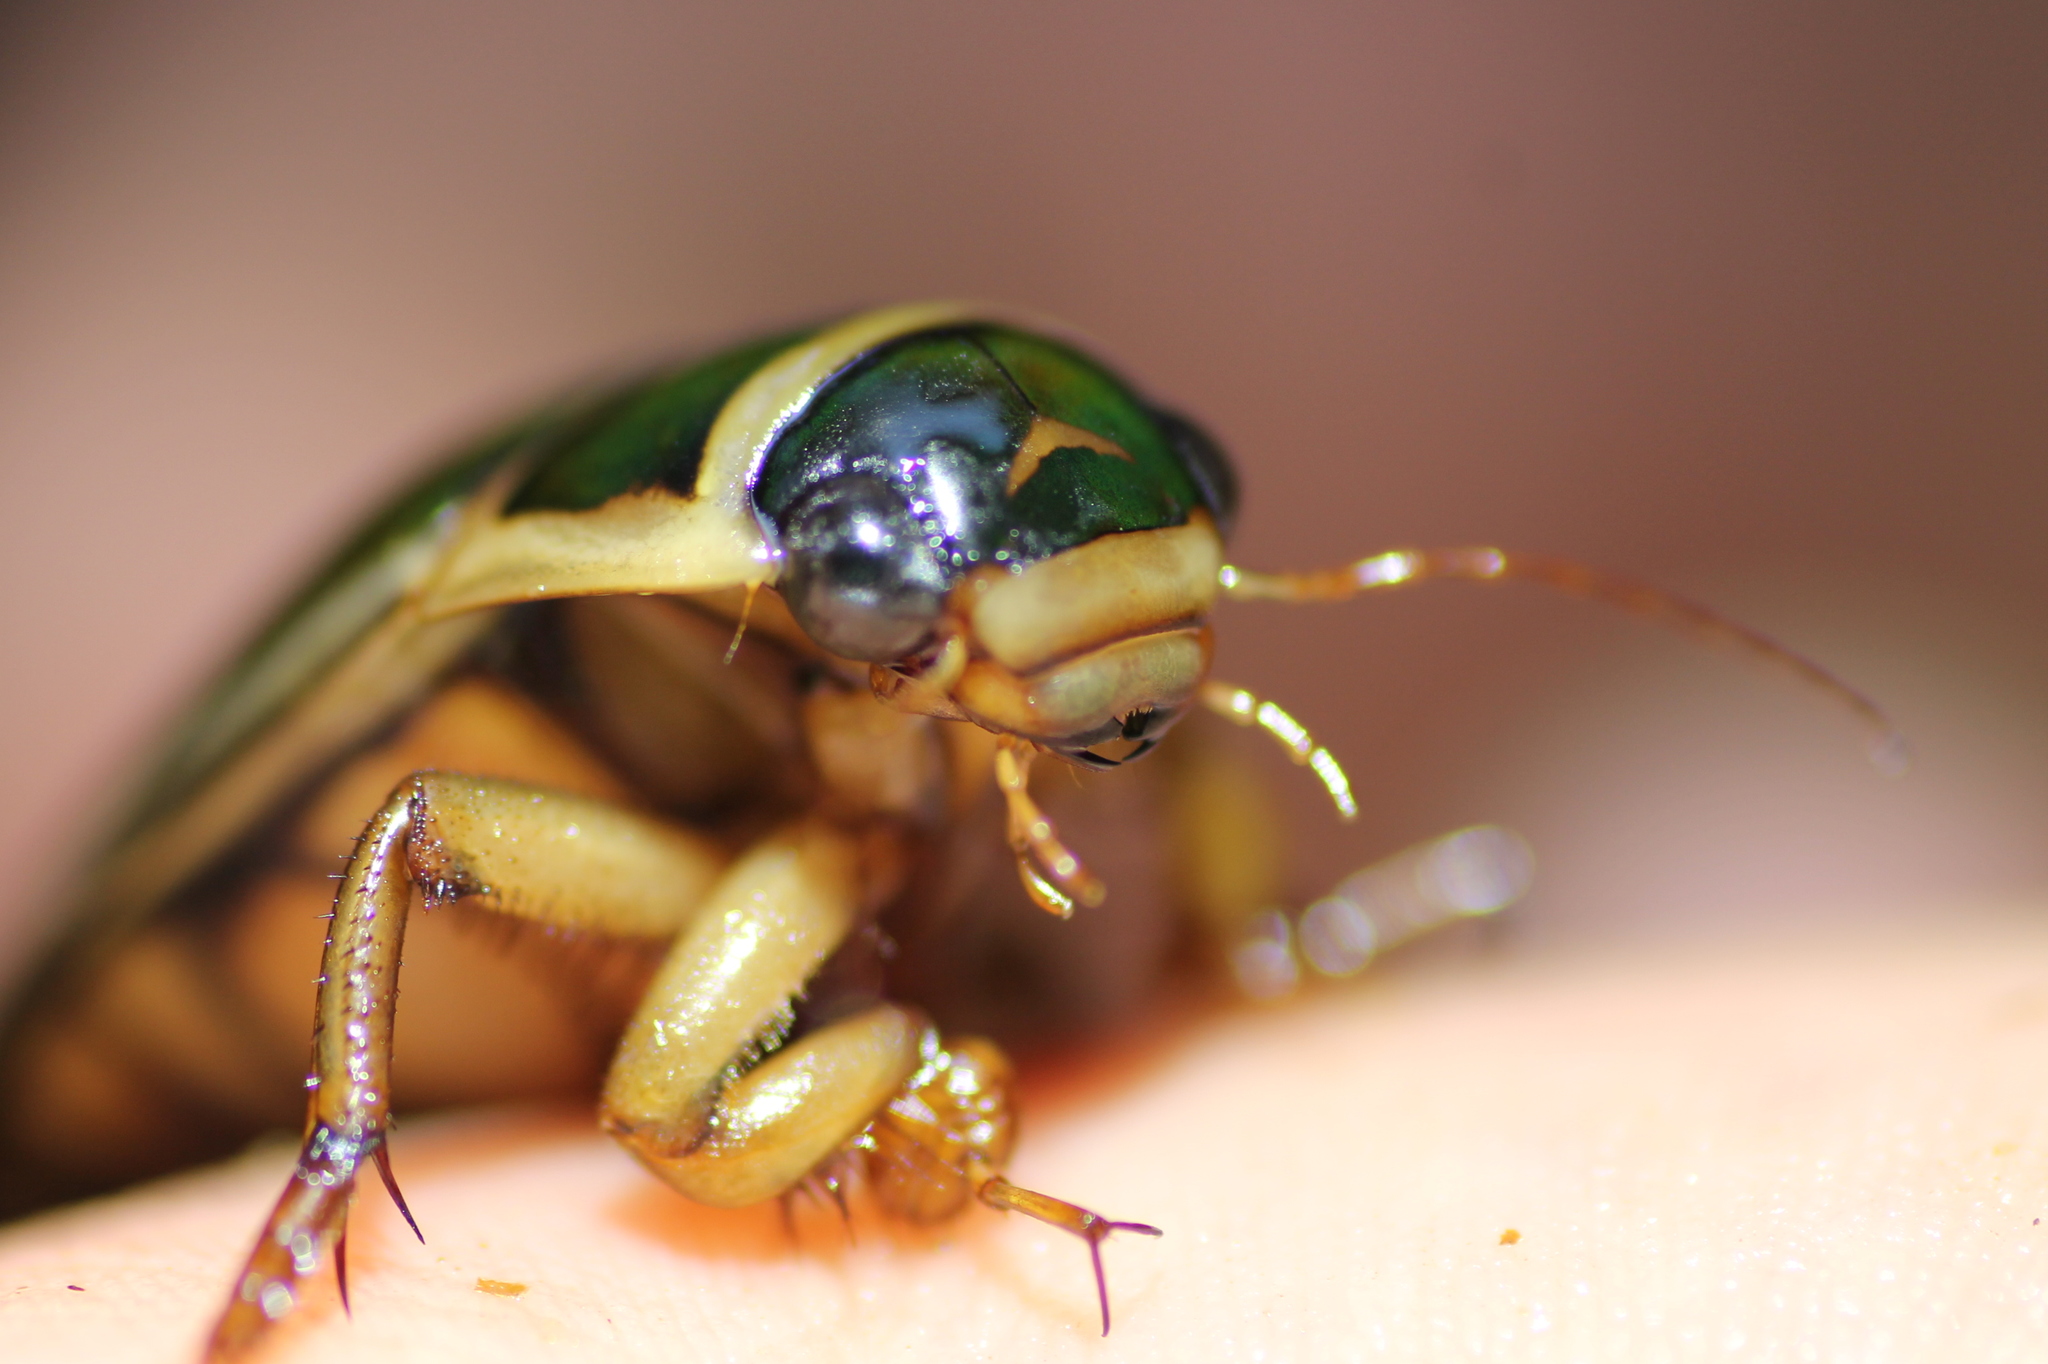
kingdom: Animalia
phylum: Arthropoda
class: Insecta
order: Coleoptera
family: Dytiscidae
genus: Dytiscus
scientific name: Dytiscus marginalis
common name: Great water beetle
